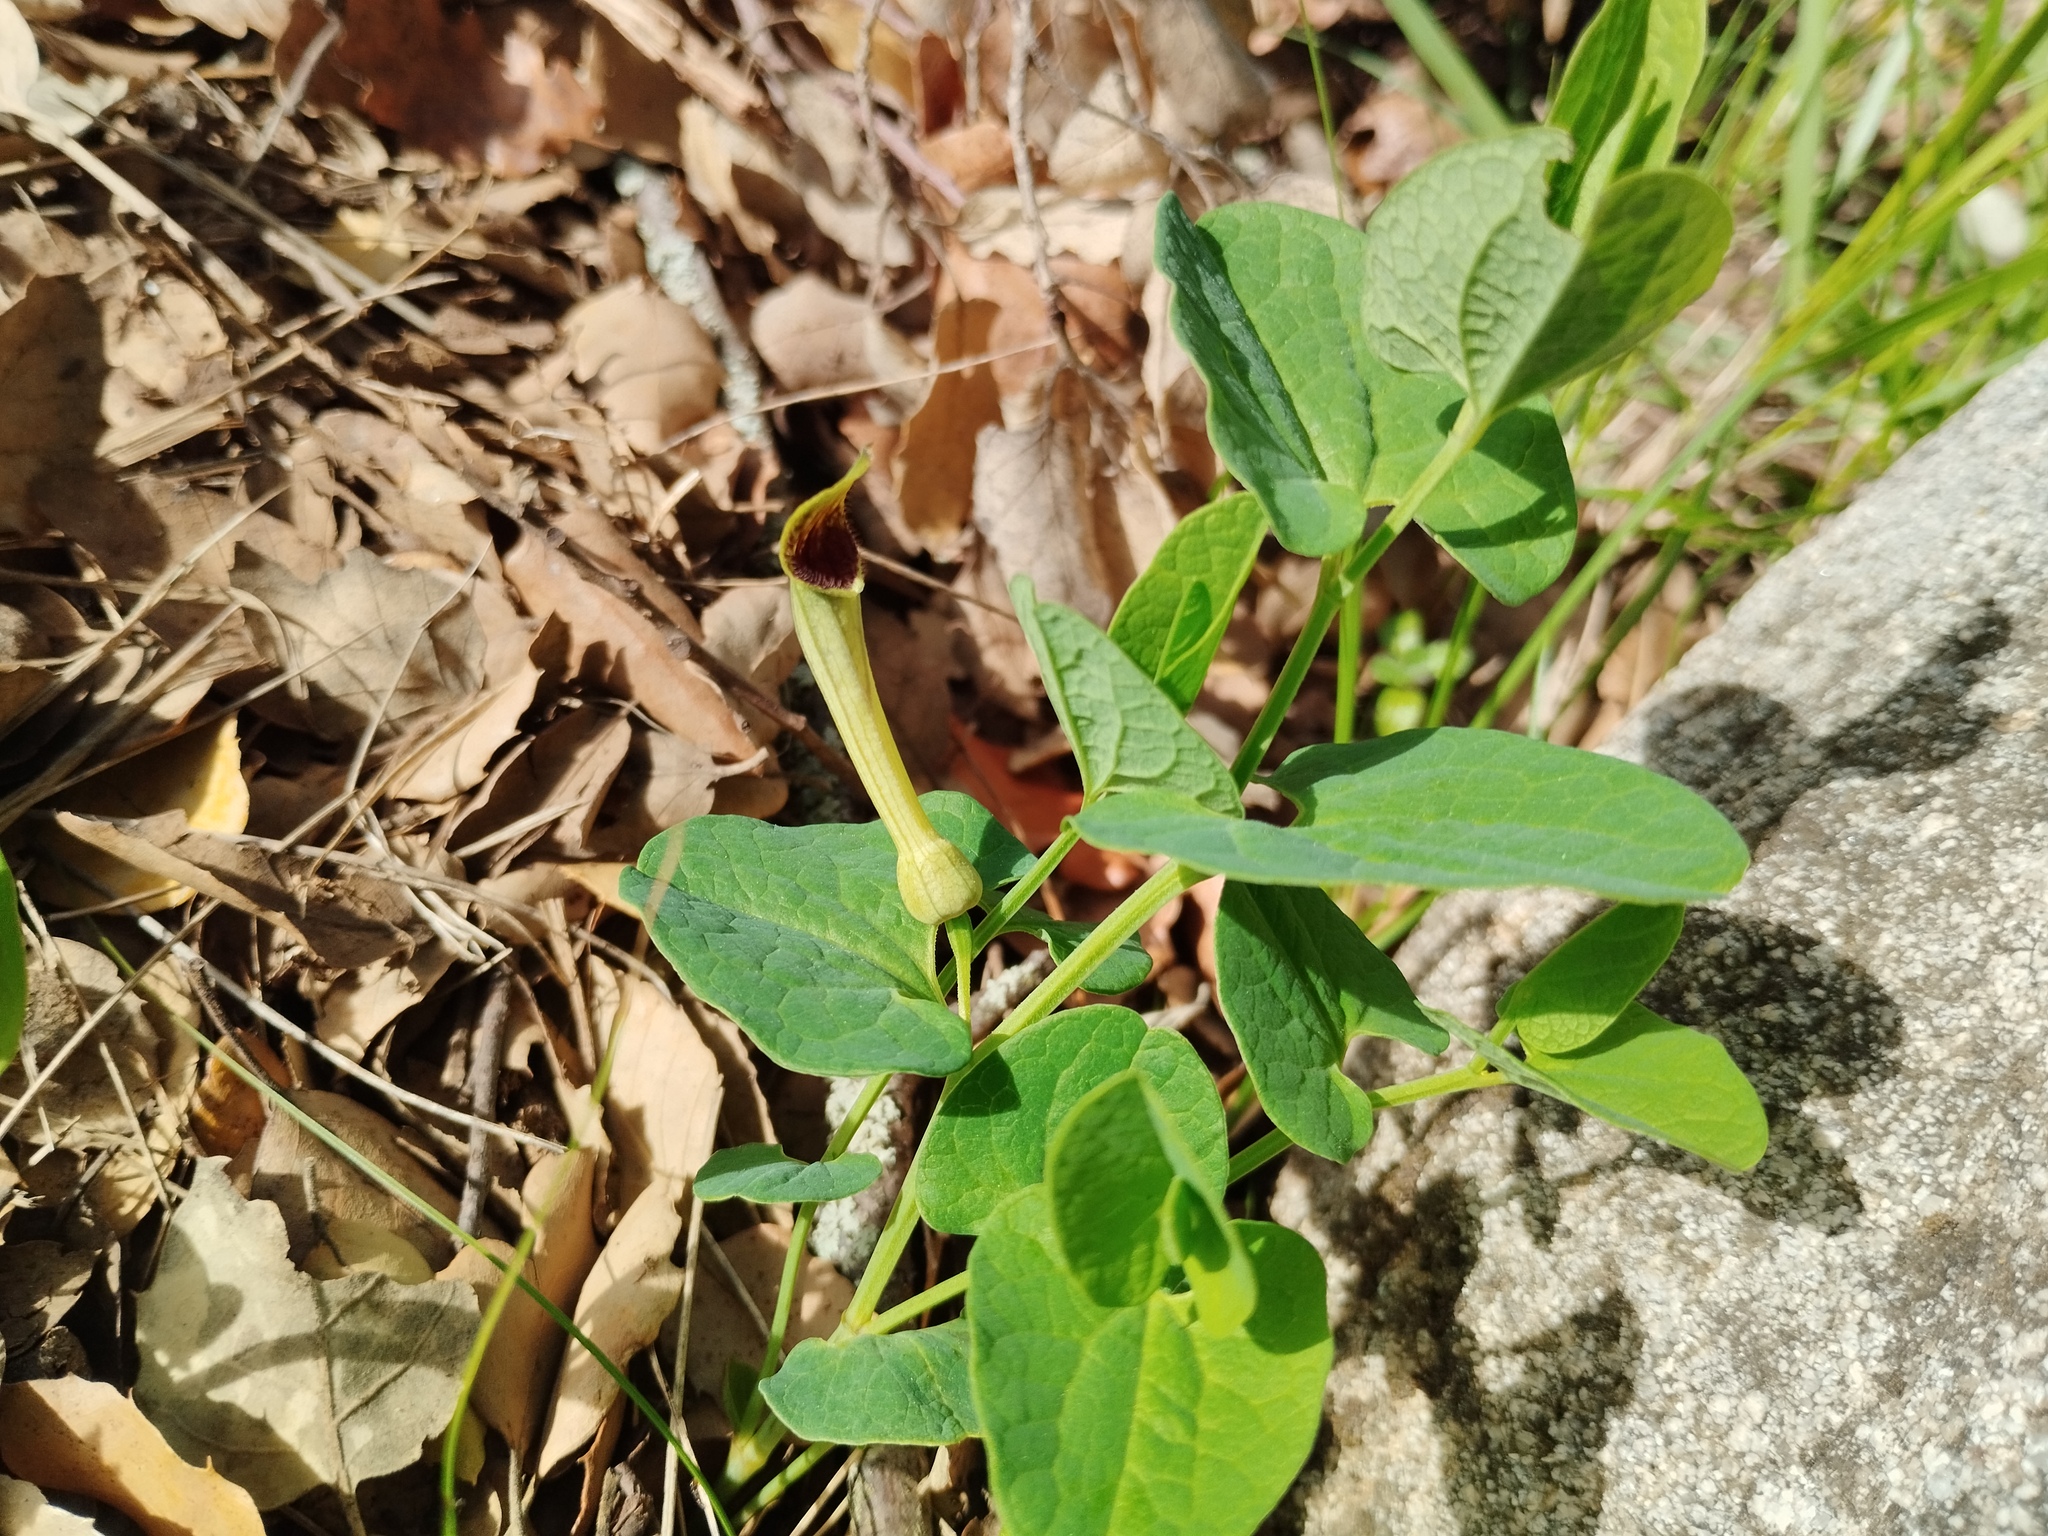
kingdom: Plantae
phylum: Tracheophyta
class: Magnoliopsida
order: Piperales
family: Aristolochiaceae
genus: Aristolochia
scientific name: Aristolochia paucinervis
